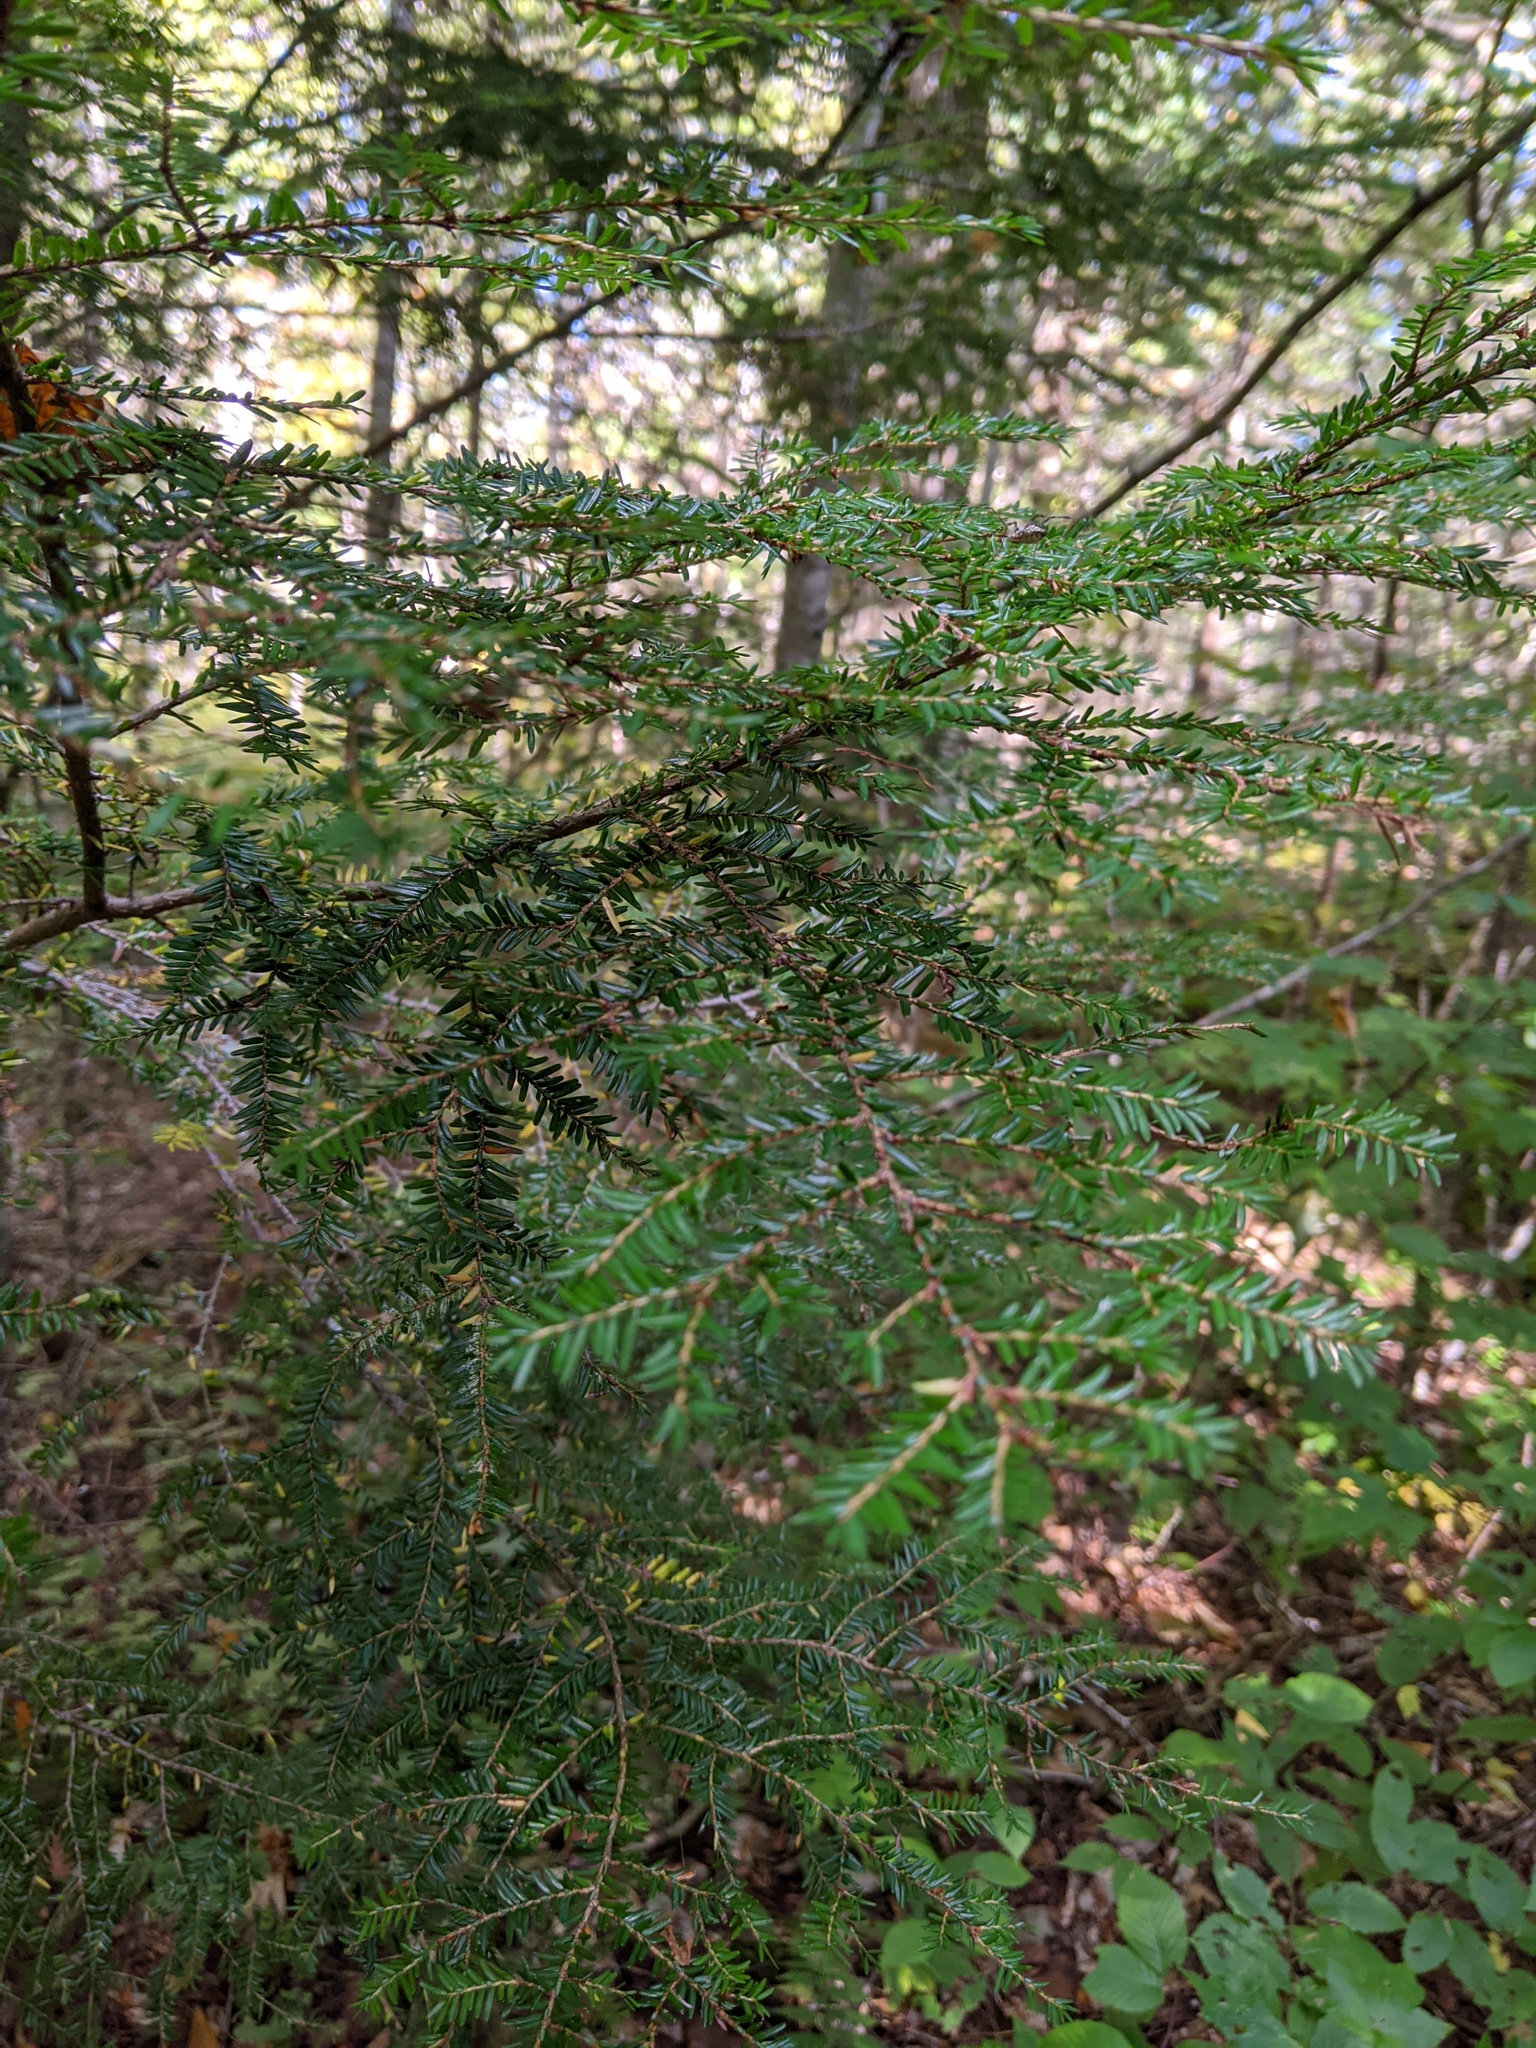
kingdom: Plantae
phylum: Tracheophyta
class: Pinopsida
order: Pinales
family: Pinaceae
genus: Tsuga
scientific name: Tsuga canadensis
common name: Eastern hemlock
